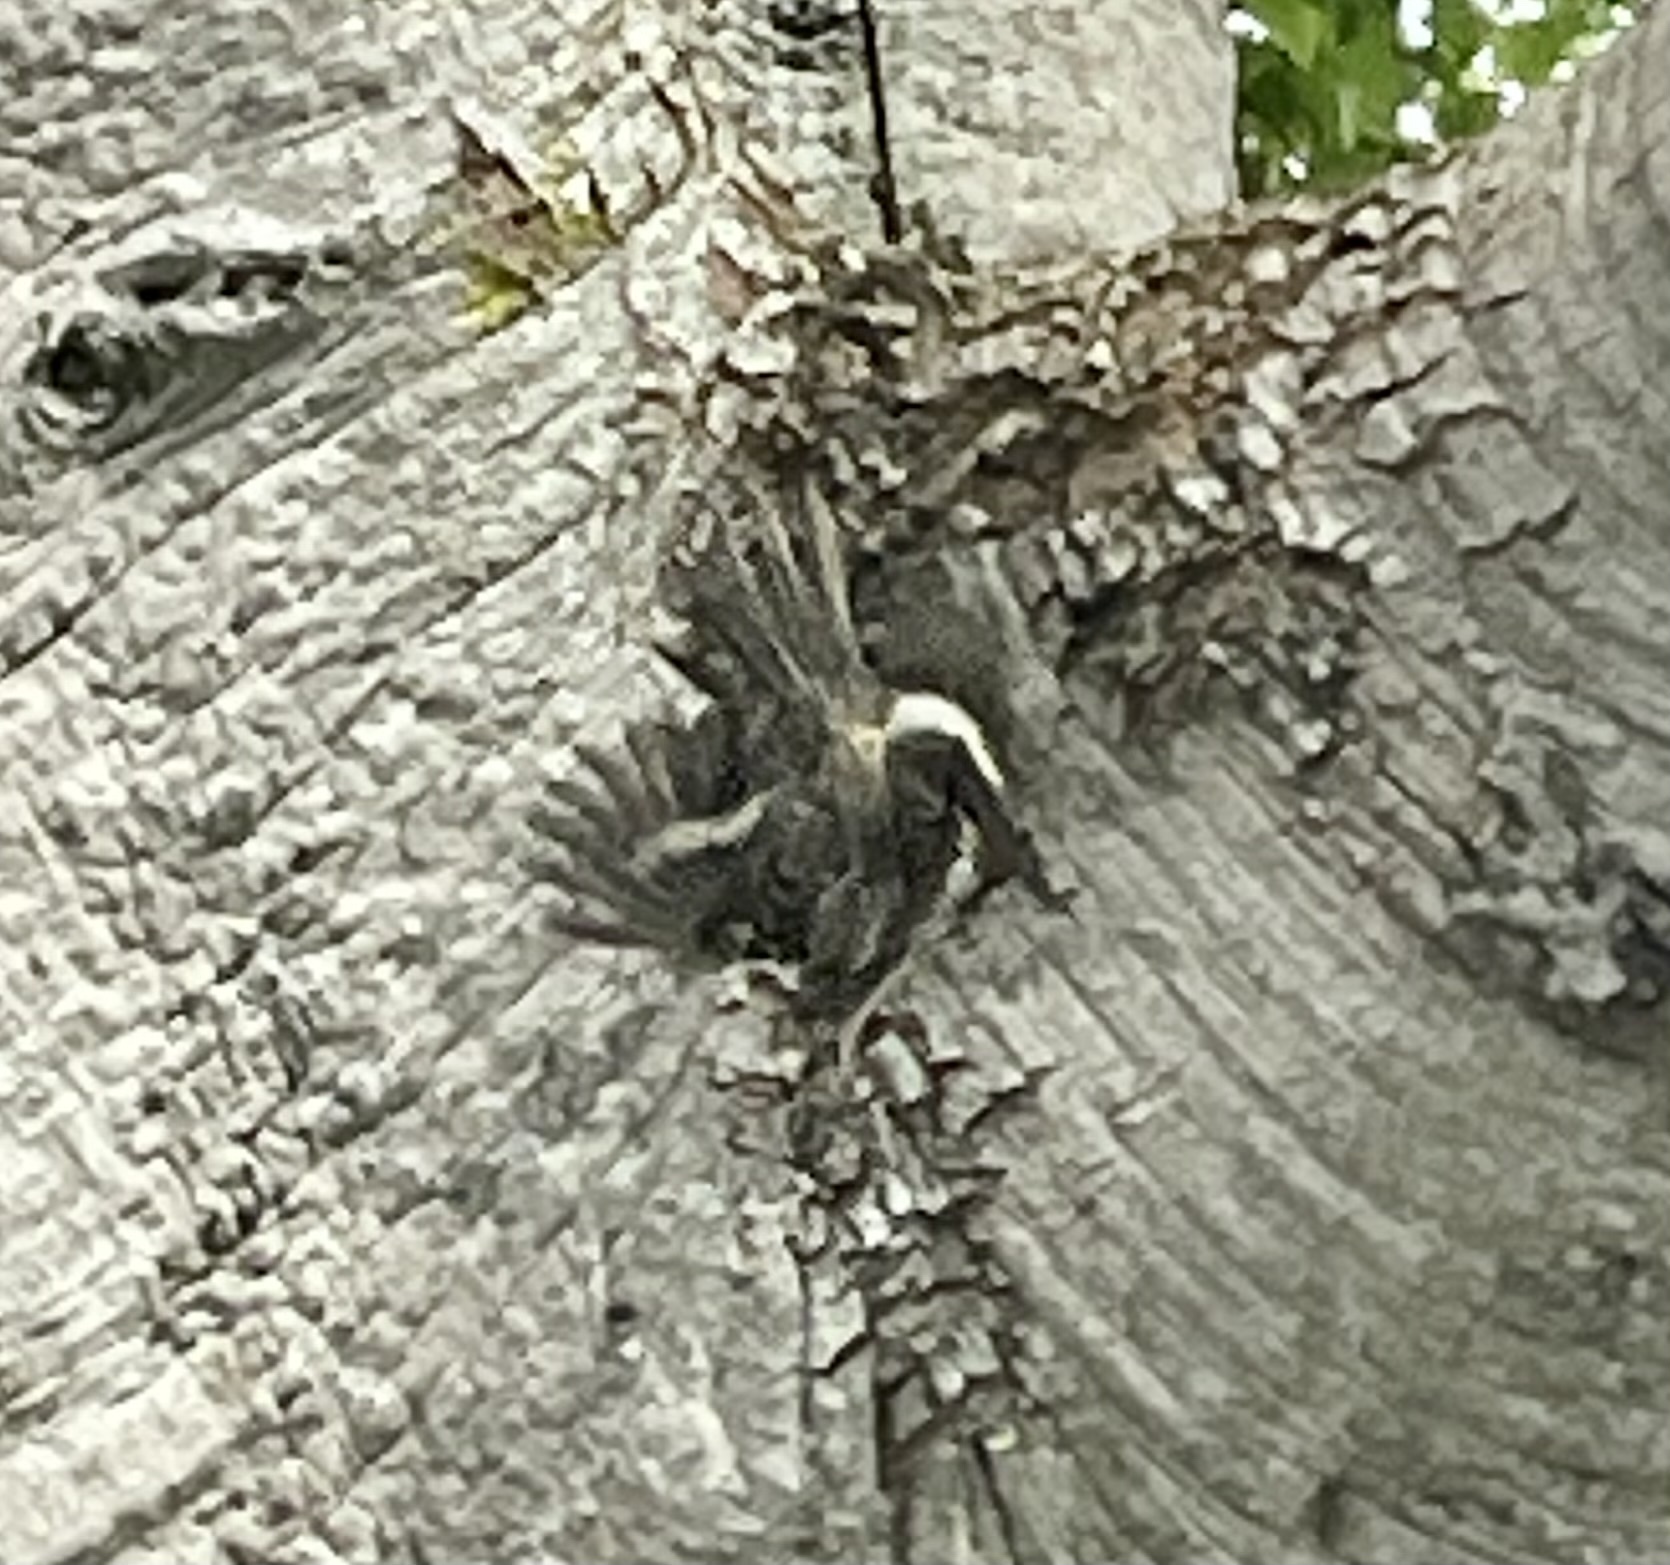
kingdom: Animalia
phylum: Chordata
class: Aves
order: Passeriformes
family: Certhiidae
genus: Certhia
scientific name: Certhia americana
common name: Brown creeper
